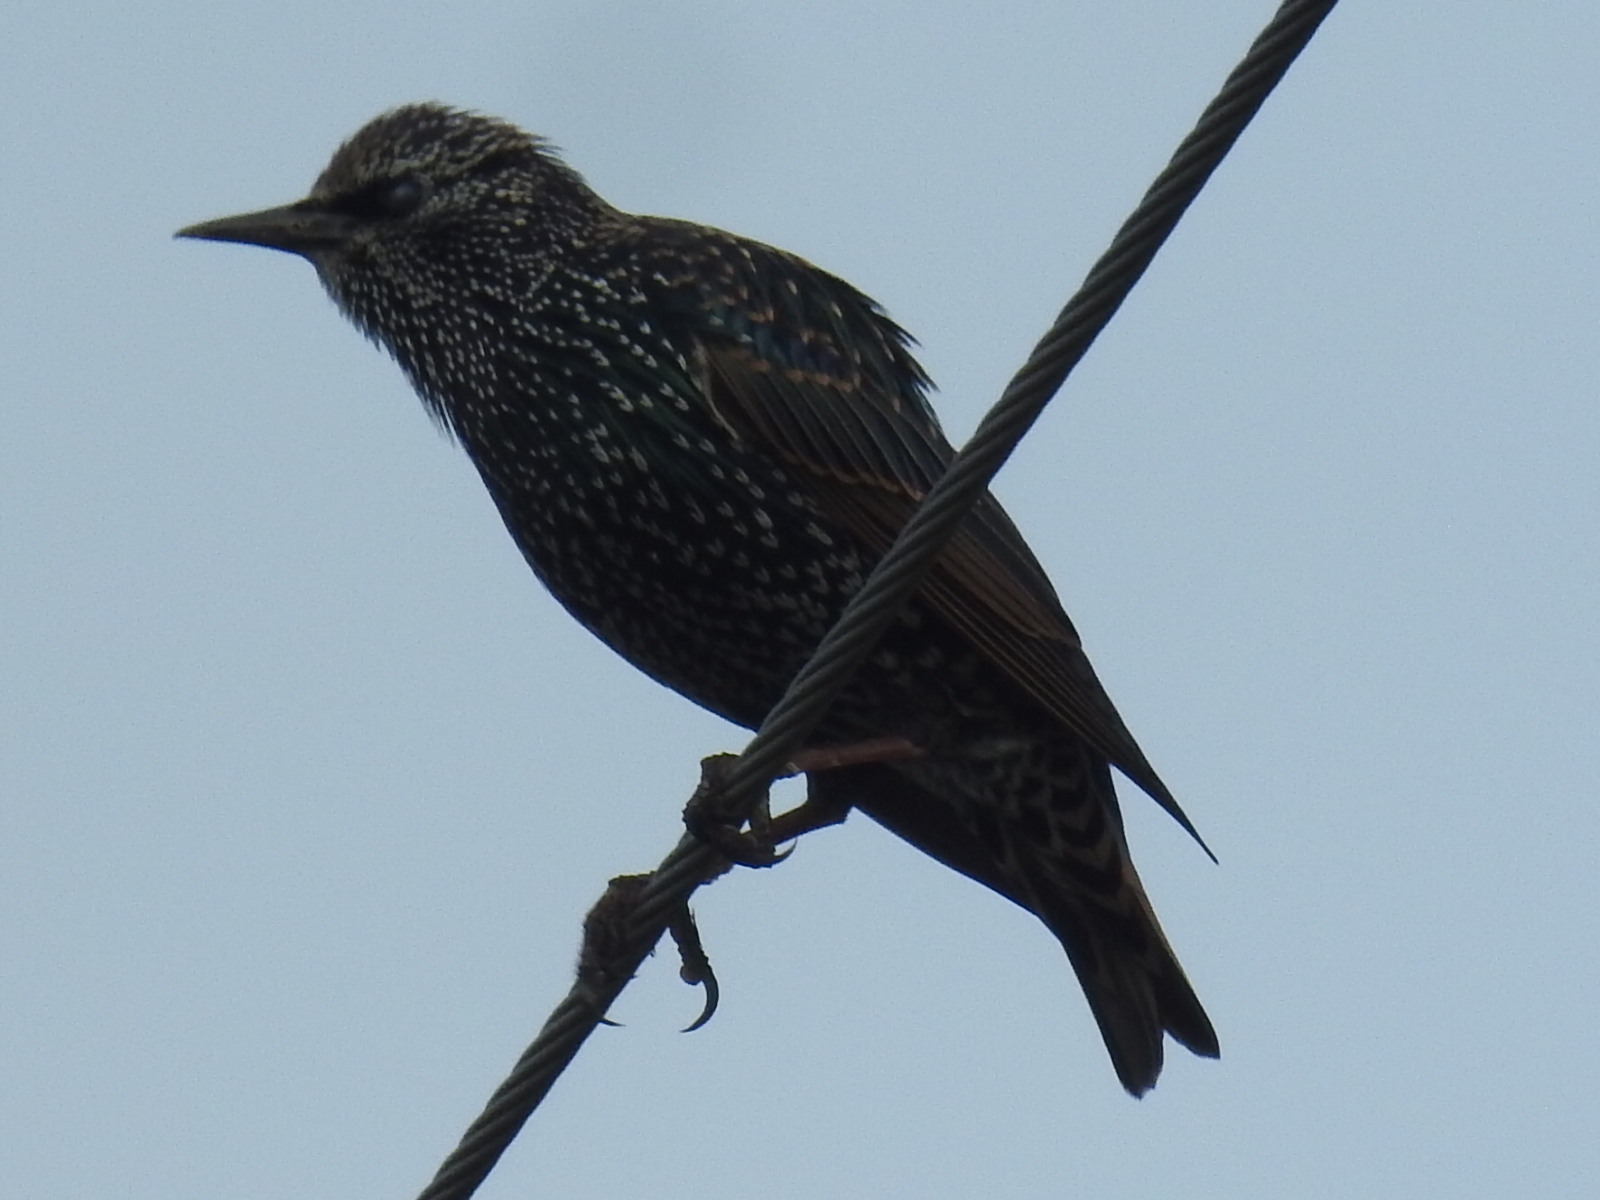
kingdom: Animalia
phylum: Chordata
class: Aves
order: Passeriformes
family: Sturnidae
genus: Sturnus
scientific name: Sturnus vulgaris
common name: Common starling
